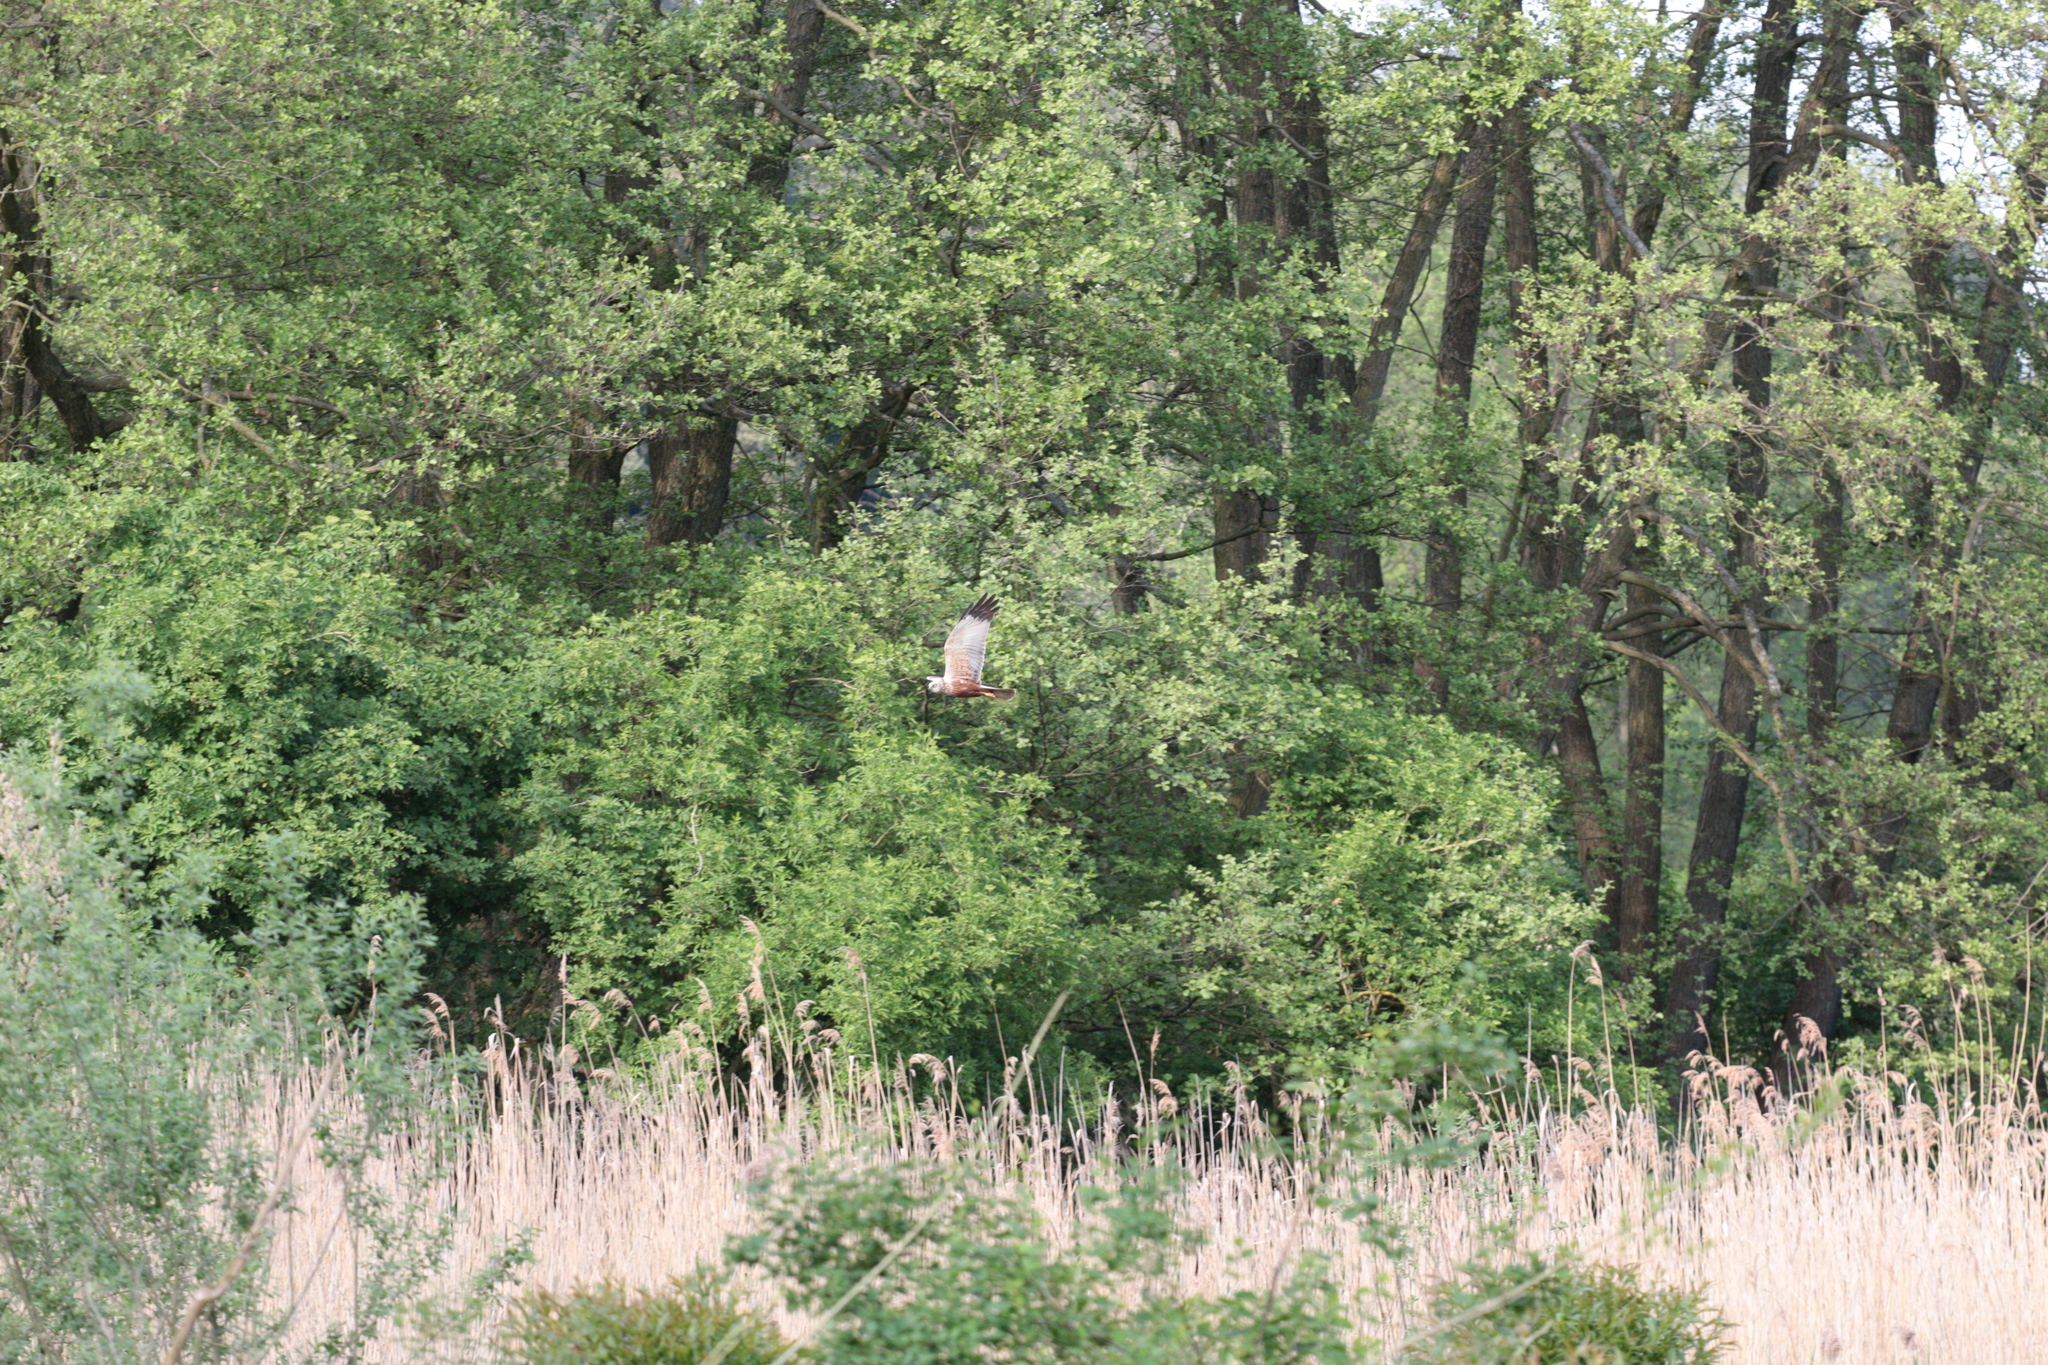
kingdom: Animalia
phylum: Chordata
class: Aves
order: Accipitriformes
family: Accipitridae
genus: Circus
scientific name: Circus aeruginosus
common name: Western marsh harrier
